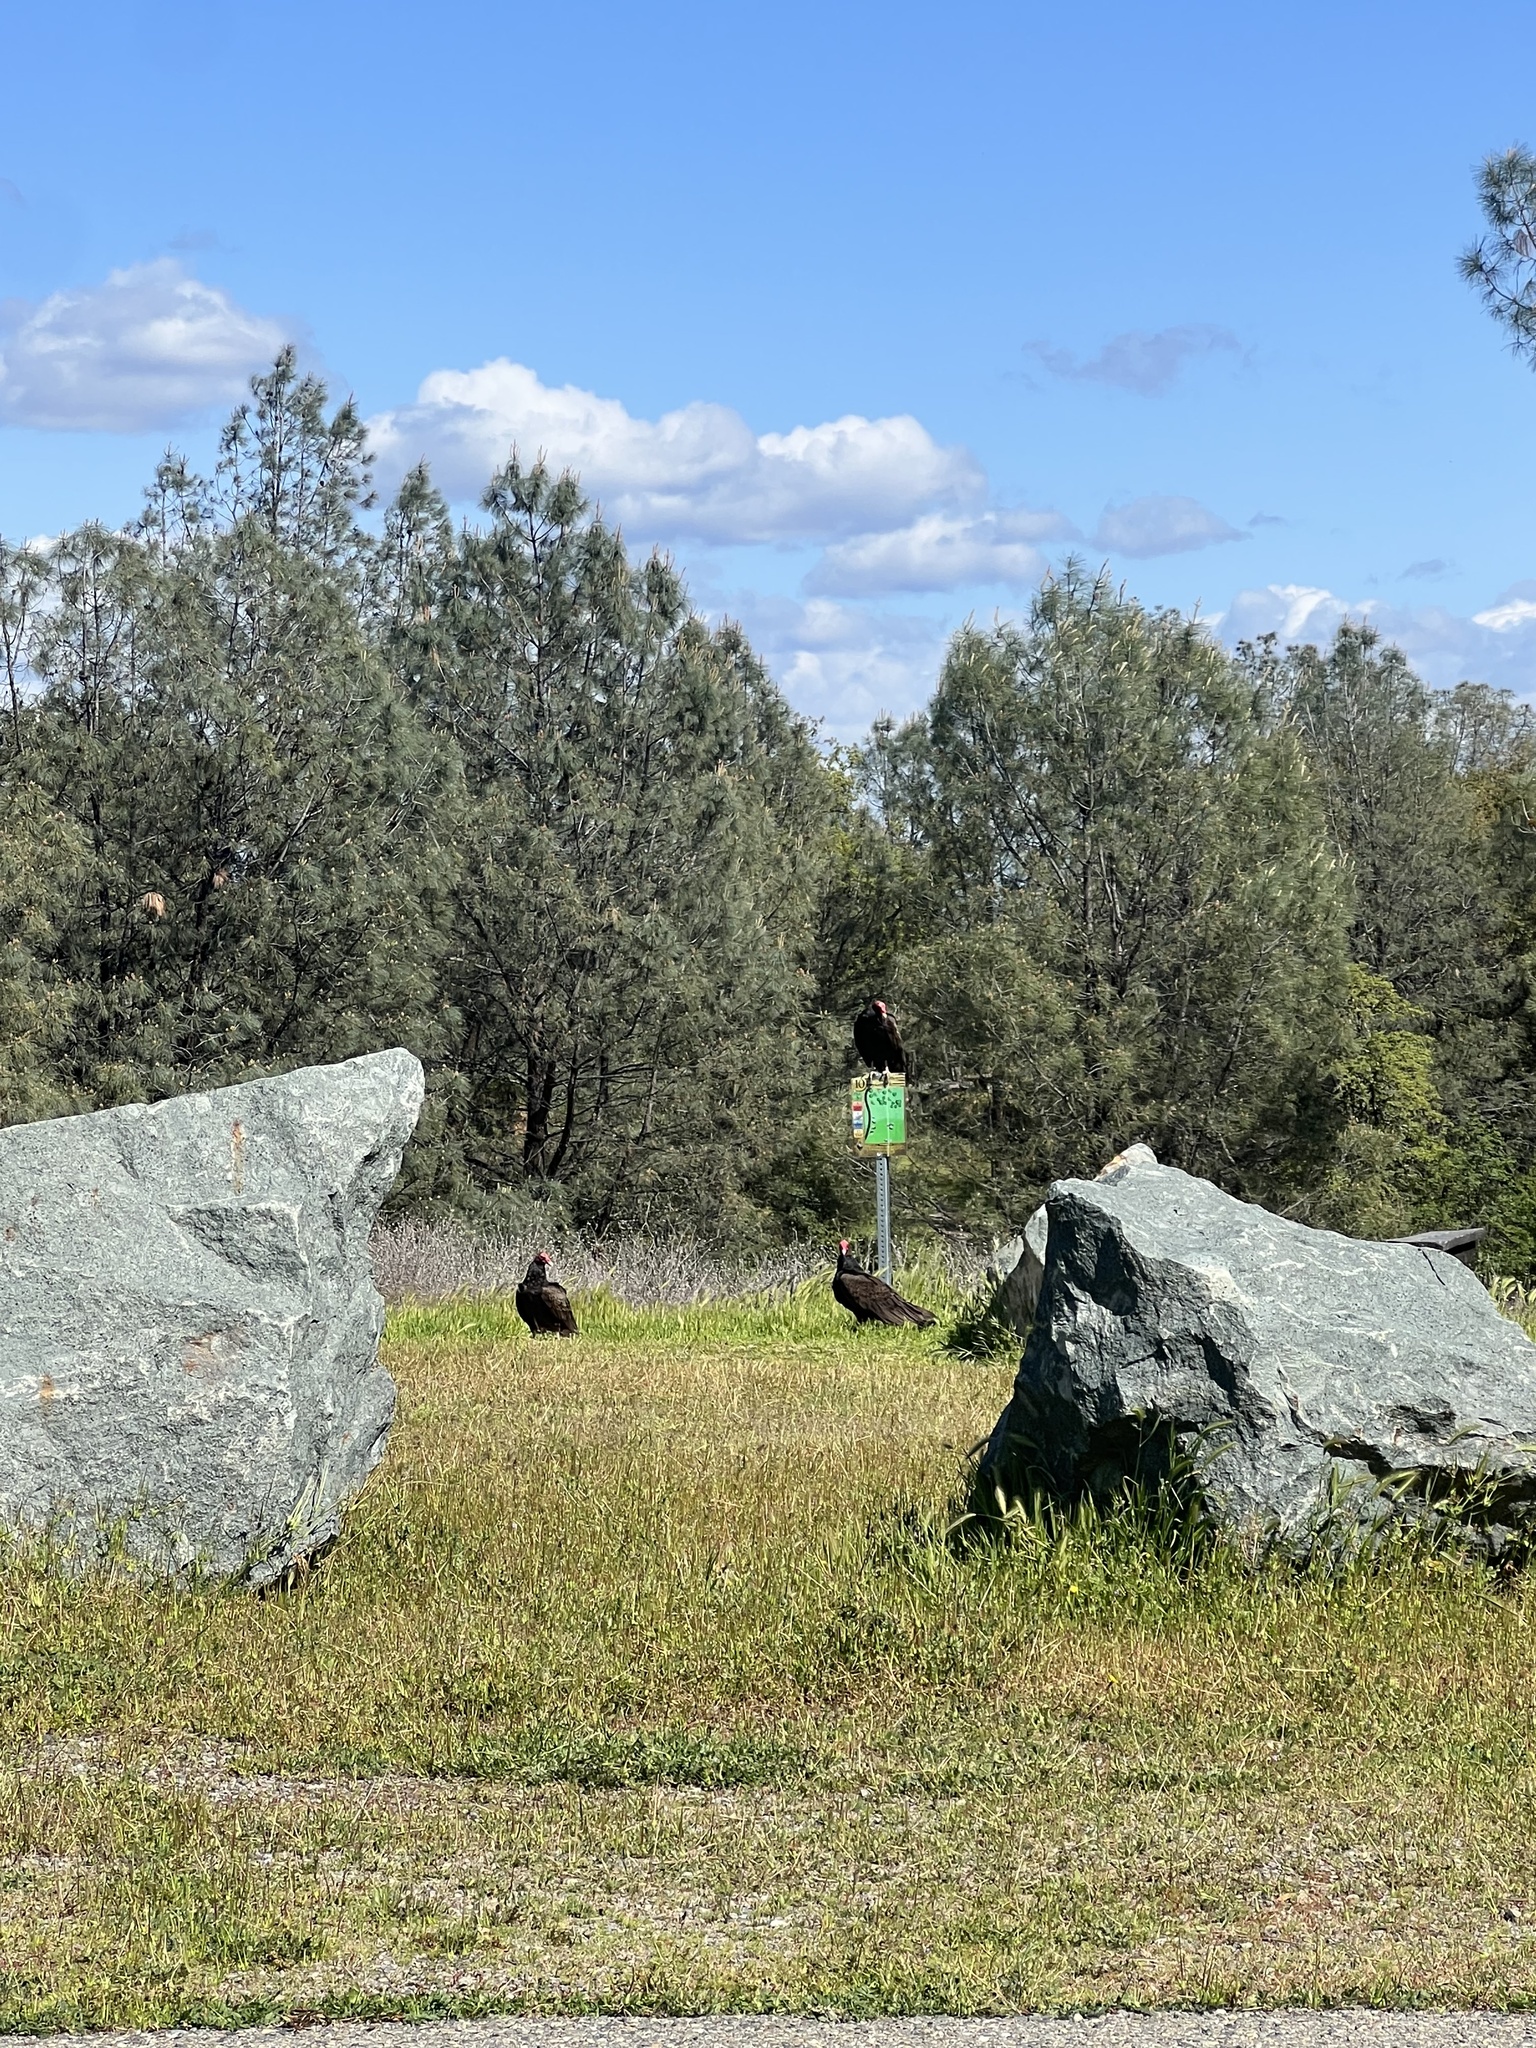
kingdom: Animalia
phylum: Chordata
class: Aves
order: Accipitriformes
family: Cathartidae
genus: Cathartes
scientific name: Cathartes aura
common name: Turkey vulture
